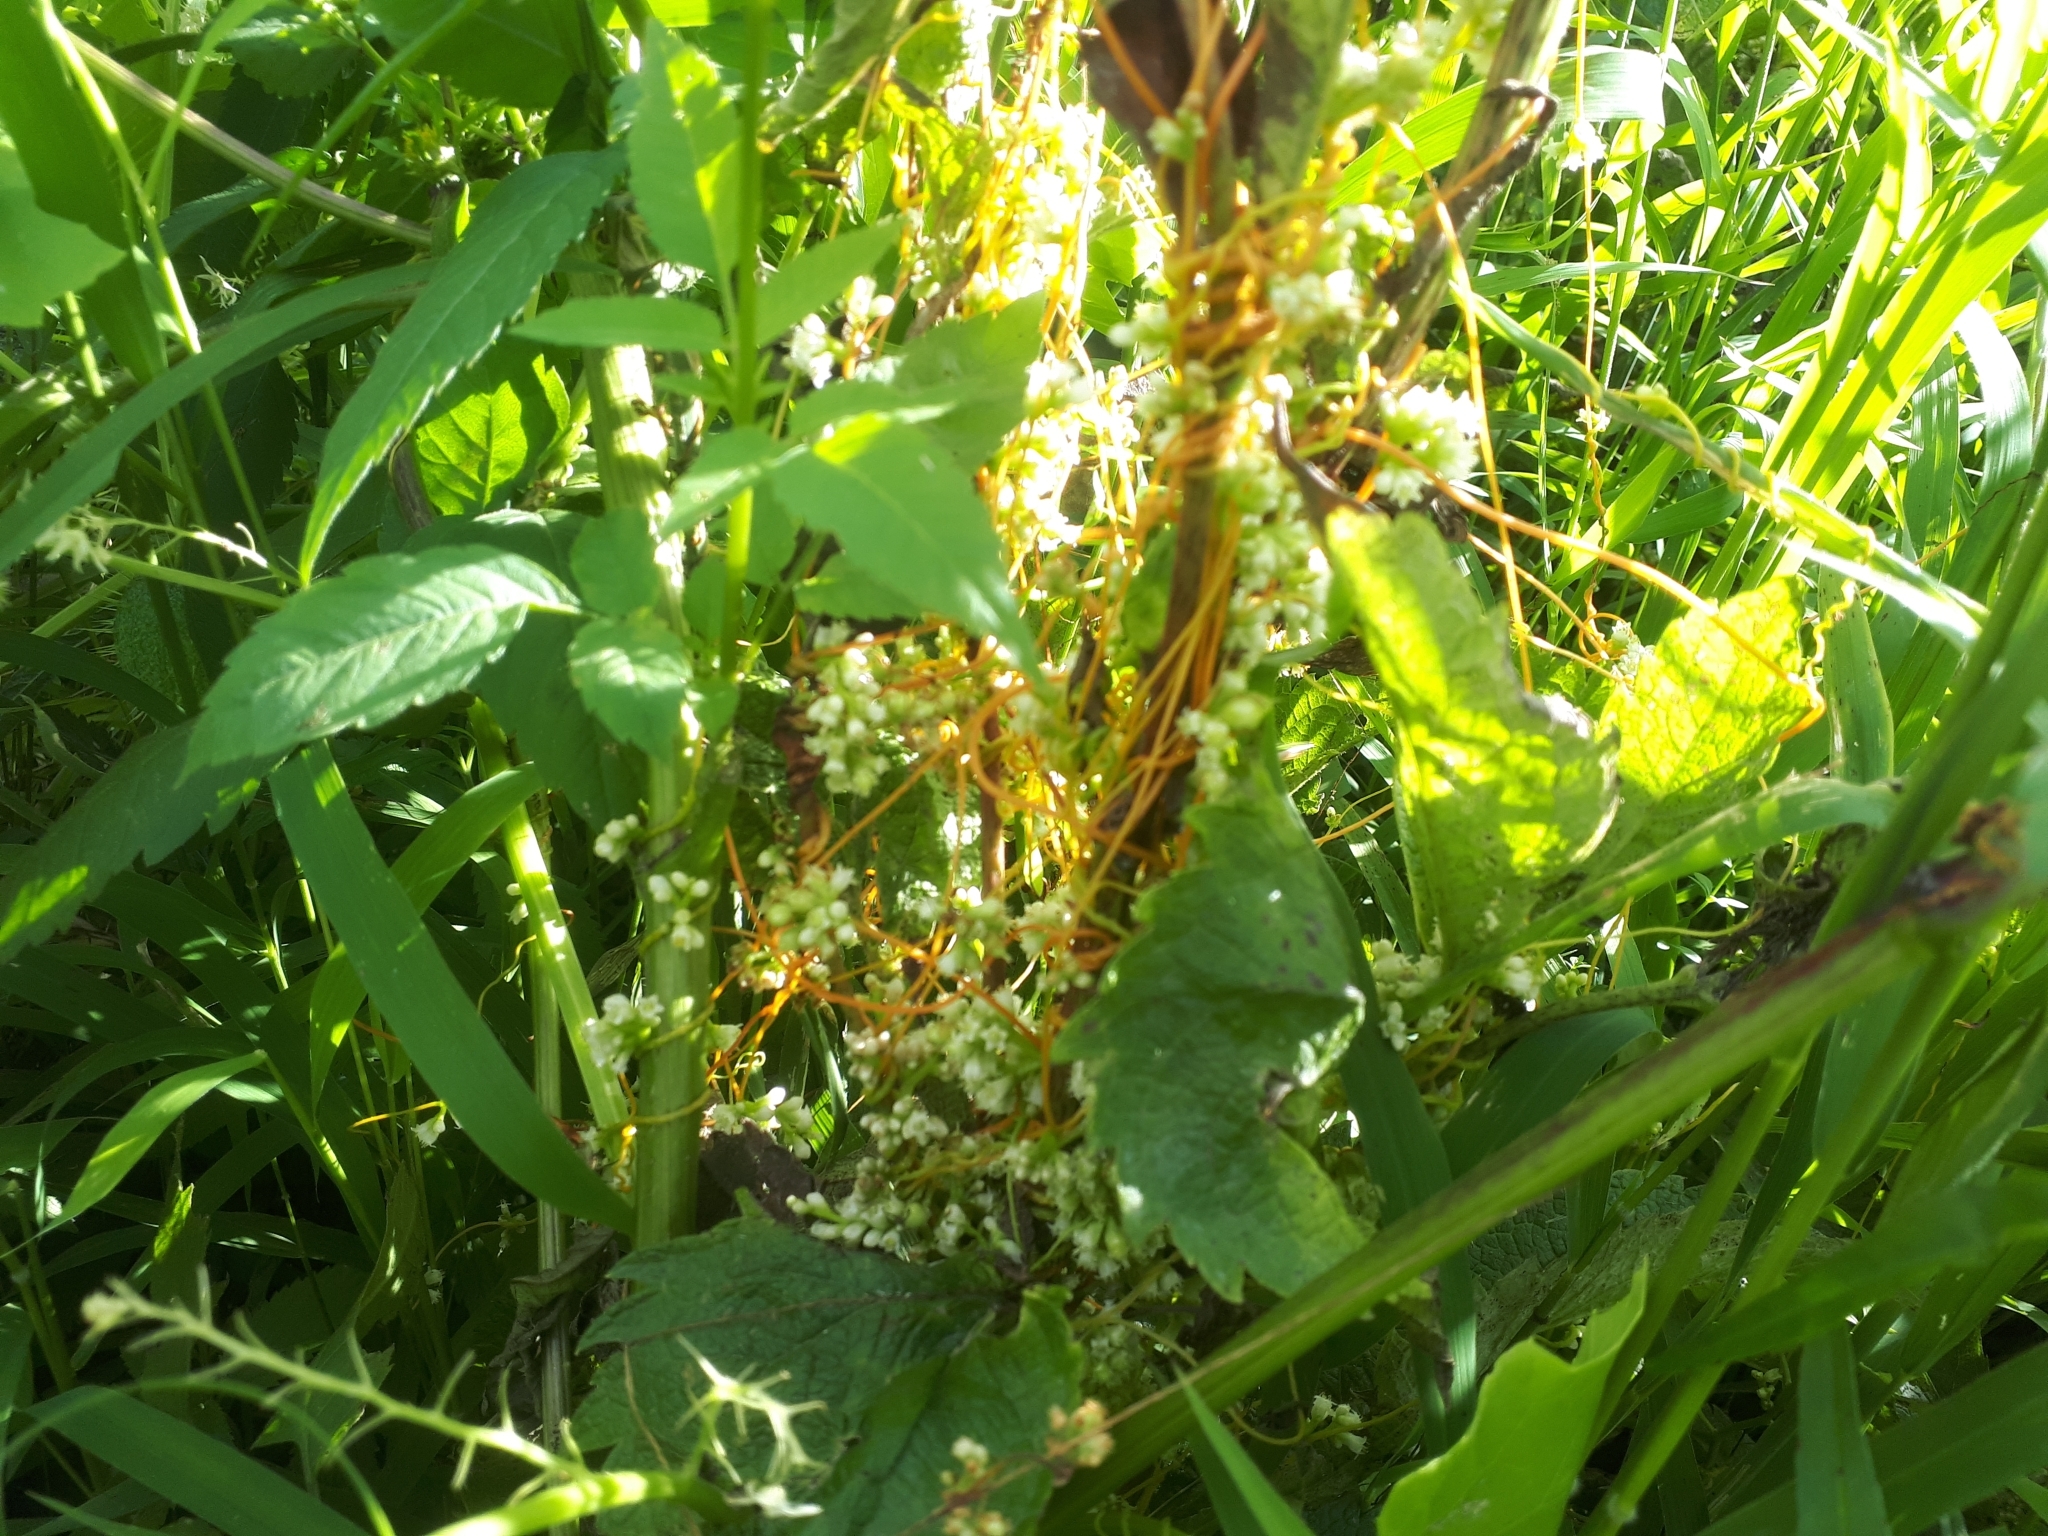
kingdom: Plantae
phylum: Tracheophyta
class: Magnoliopsida
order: Solanales
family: Convolvulaceae
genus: Cuscuta
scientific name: Cuscuta gronovii
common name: Common dodder
